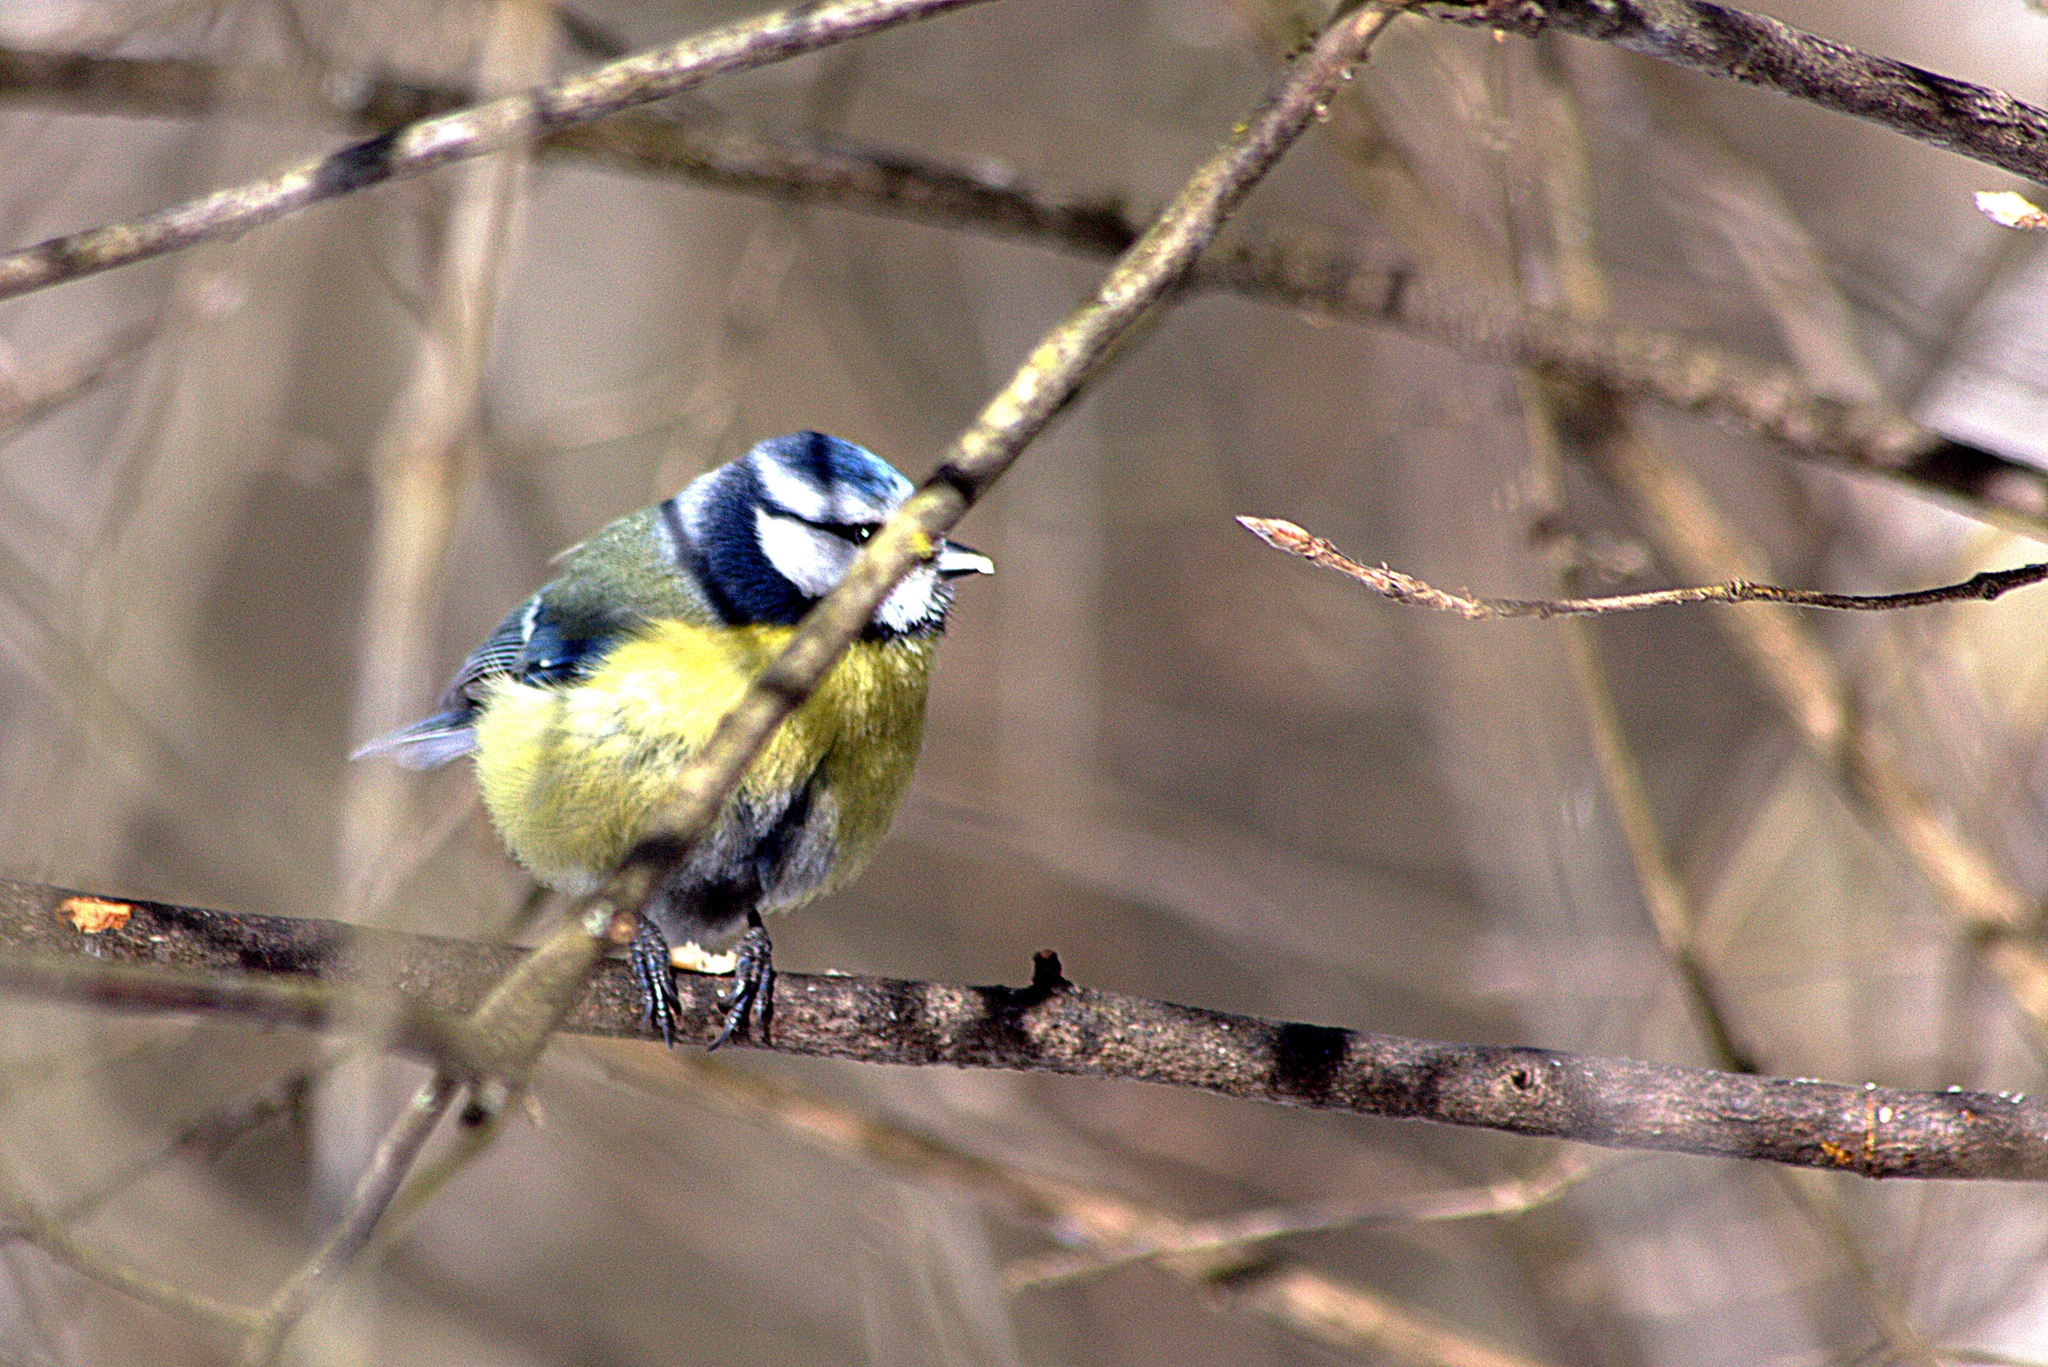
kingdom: Animalia
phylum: Chordata
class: Aves
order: Passeriformes
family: Paridae
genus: Cyanistes
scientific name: Cyanistes caeruleus
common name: Eurasian blue tit
